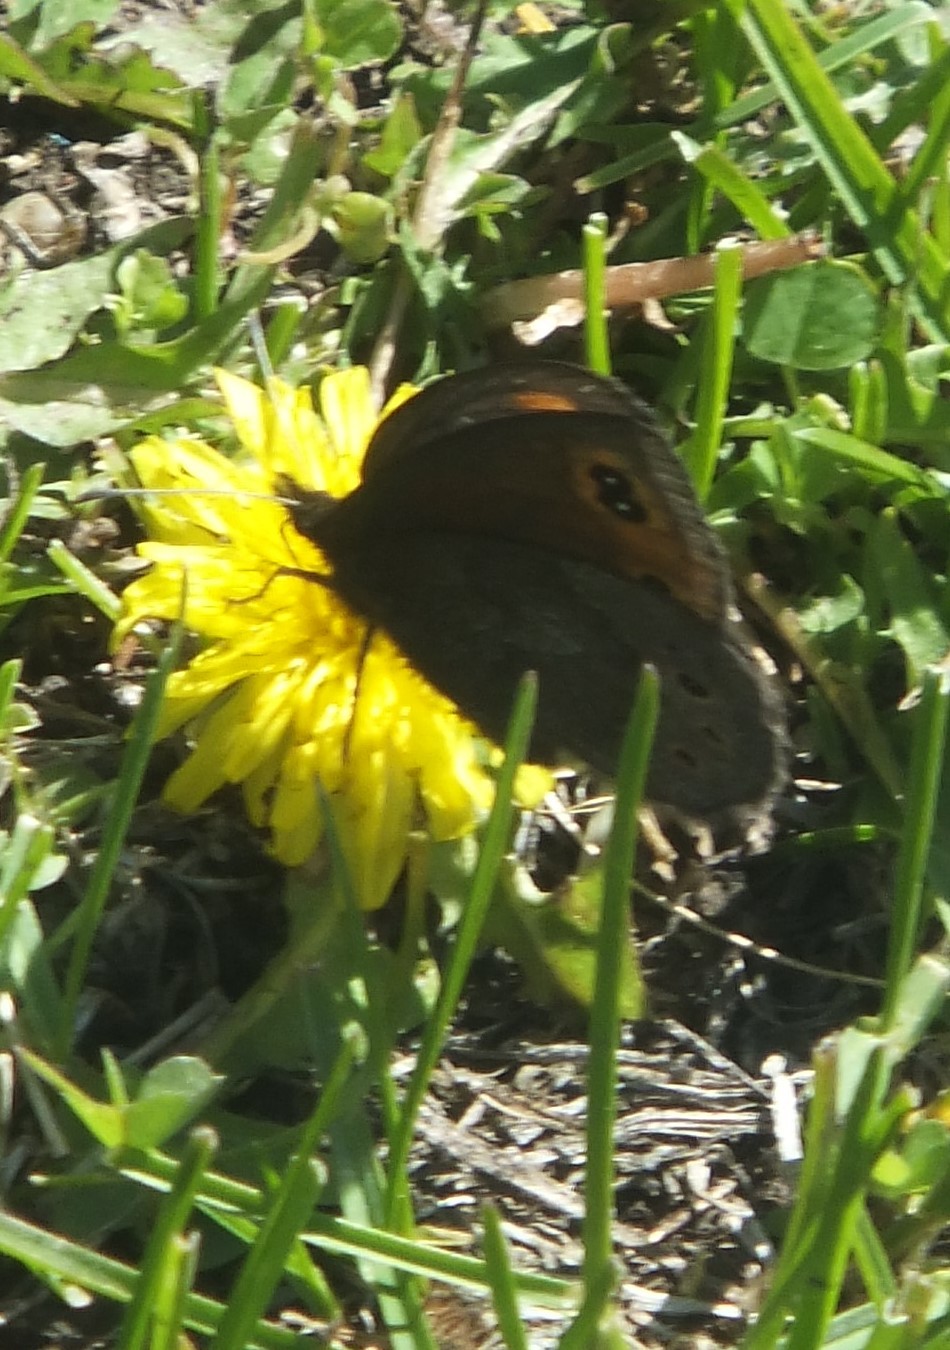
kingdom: Animalia
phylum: Arthropoda
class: Insecta
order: Lepidoptera
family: Nymphalidae
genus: Erebia
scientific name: Erebia epipsodea
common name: Common alpine
